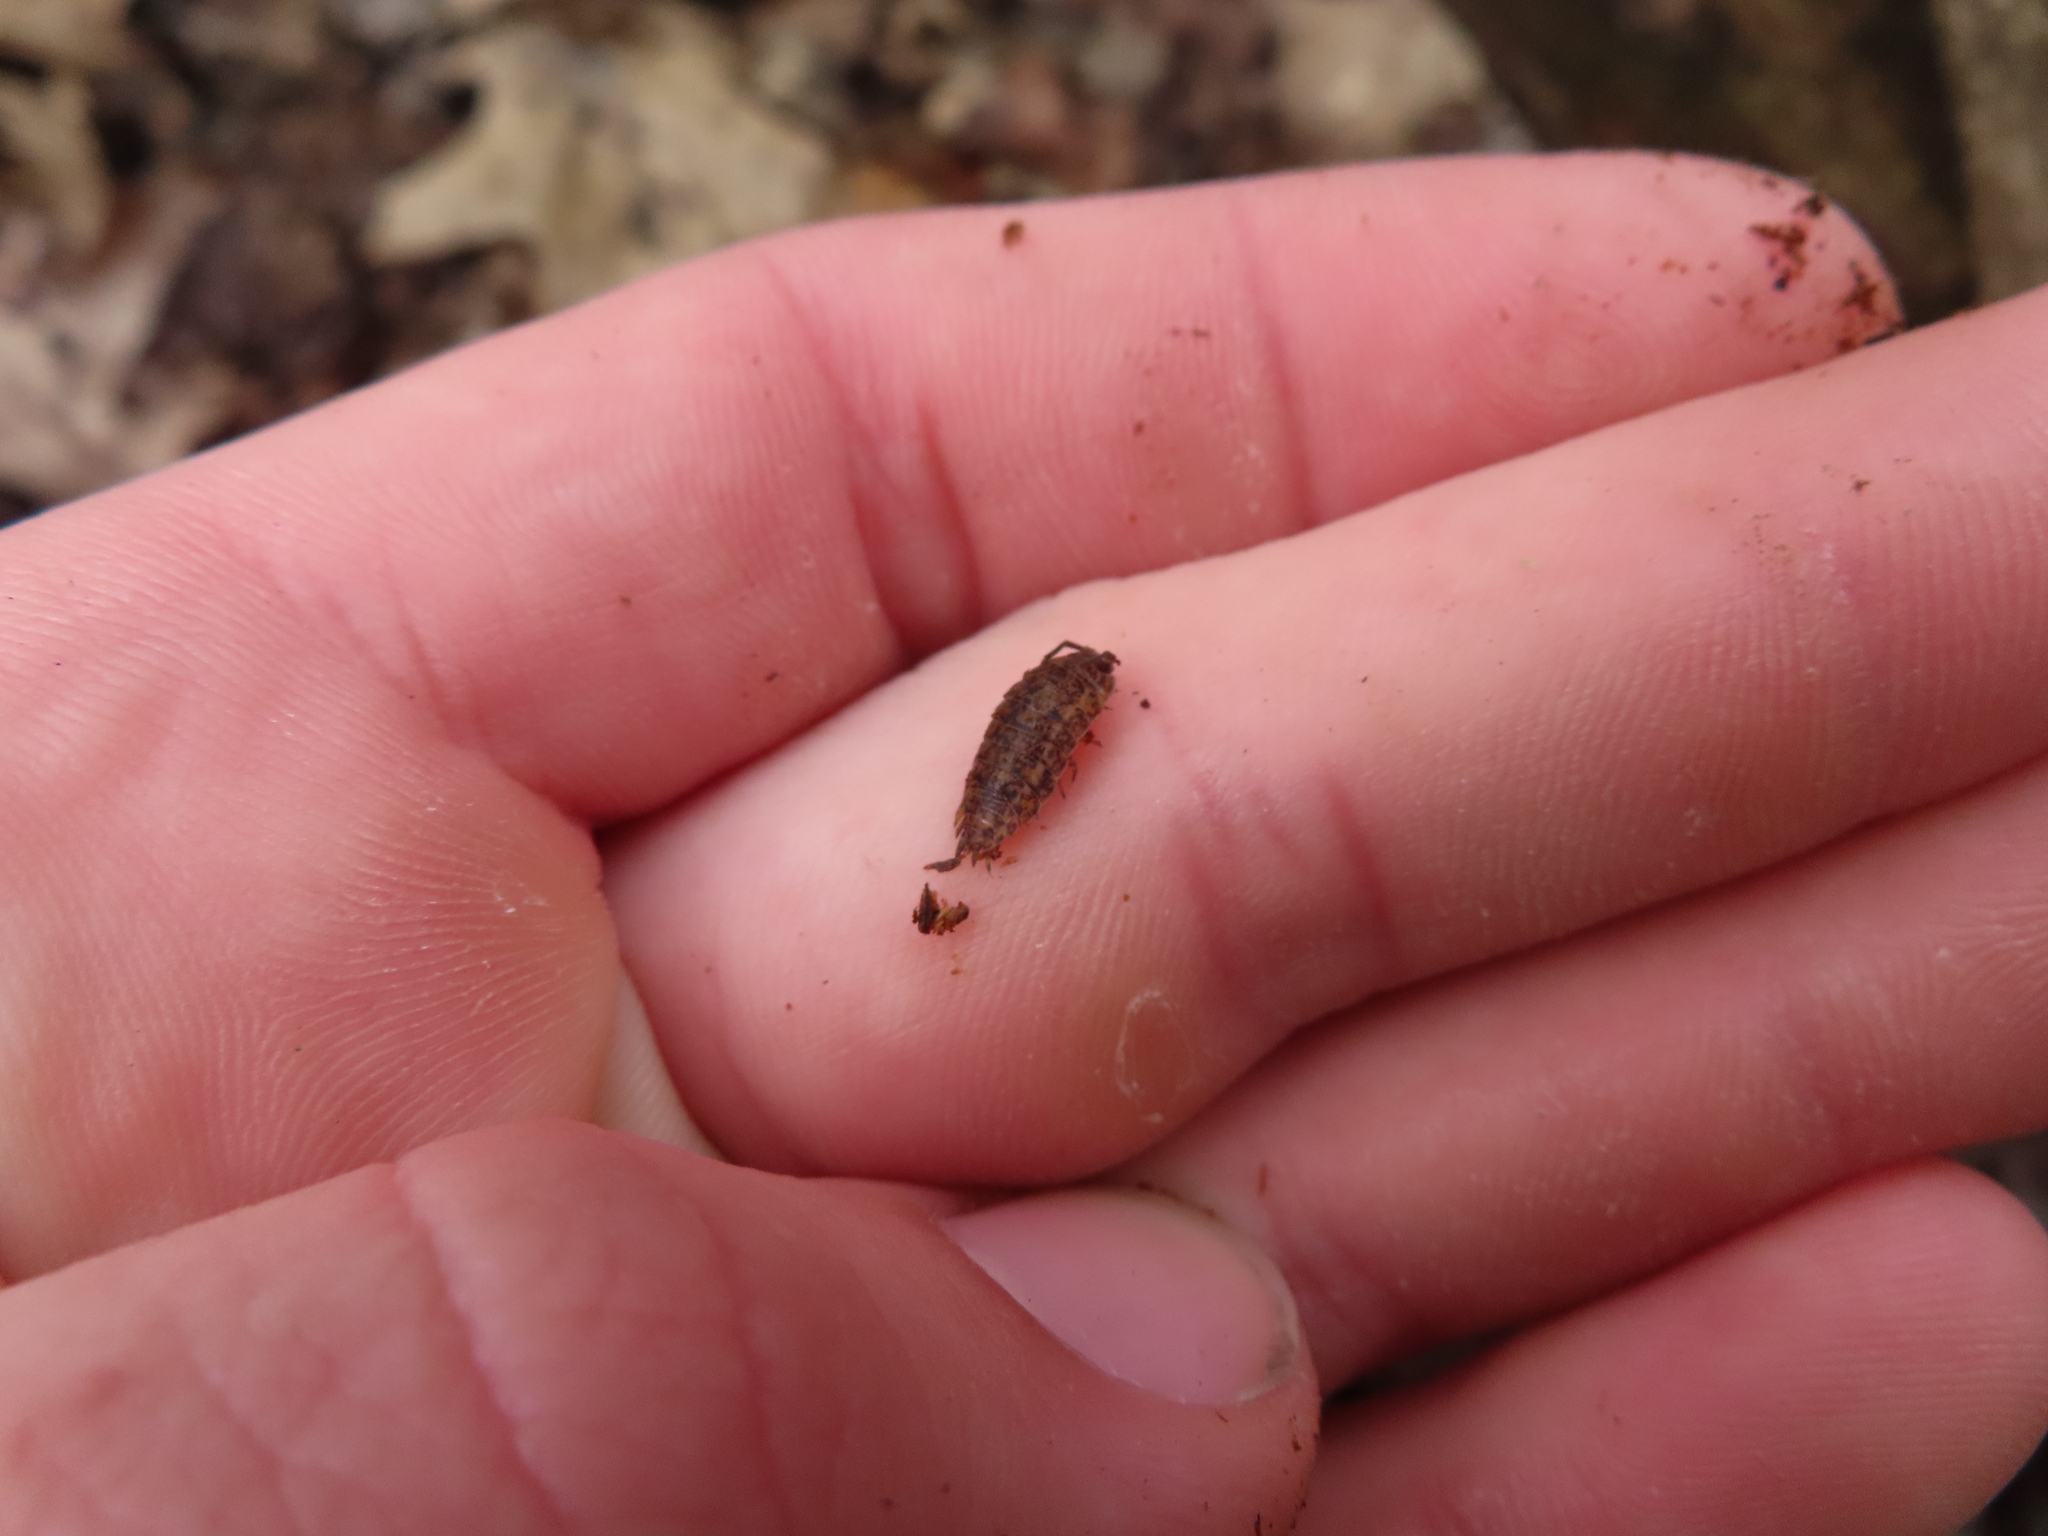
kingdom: Animalia
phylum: Arthropoda
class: Malacostraca
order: Isopoda
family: Trachelipodidae
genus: Trachelipus
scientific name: Trachelipus rathkii
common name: Isopod
